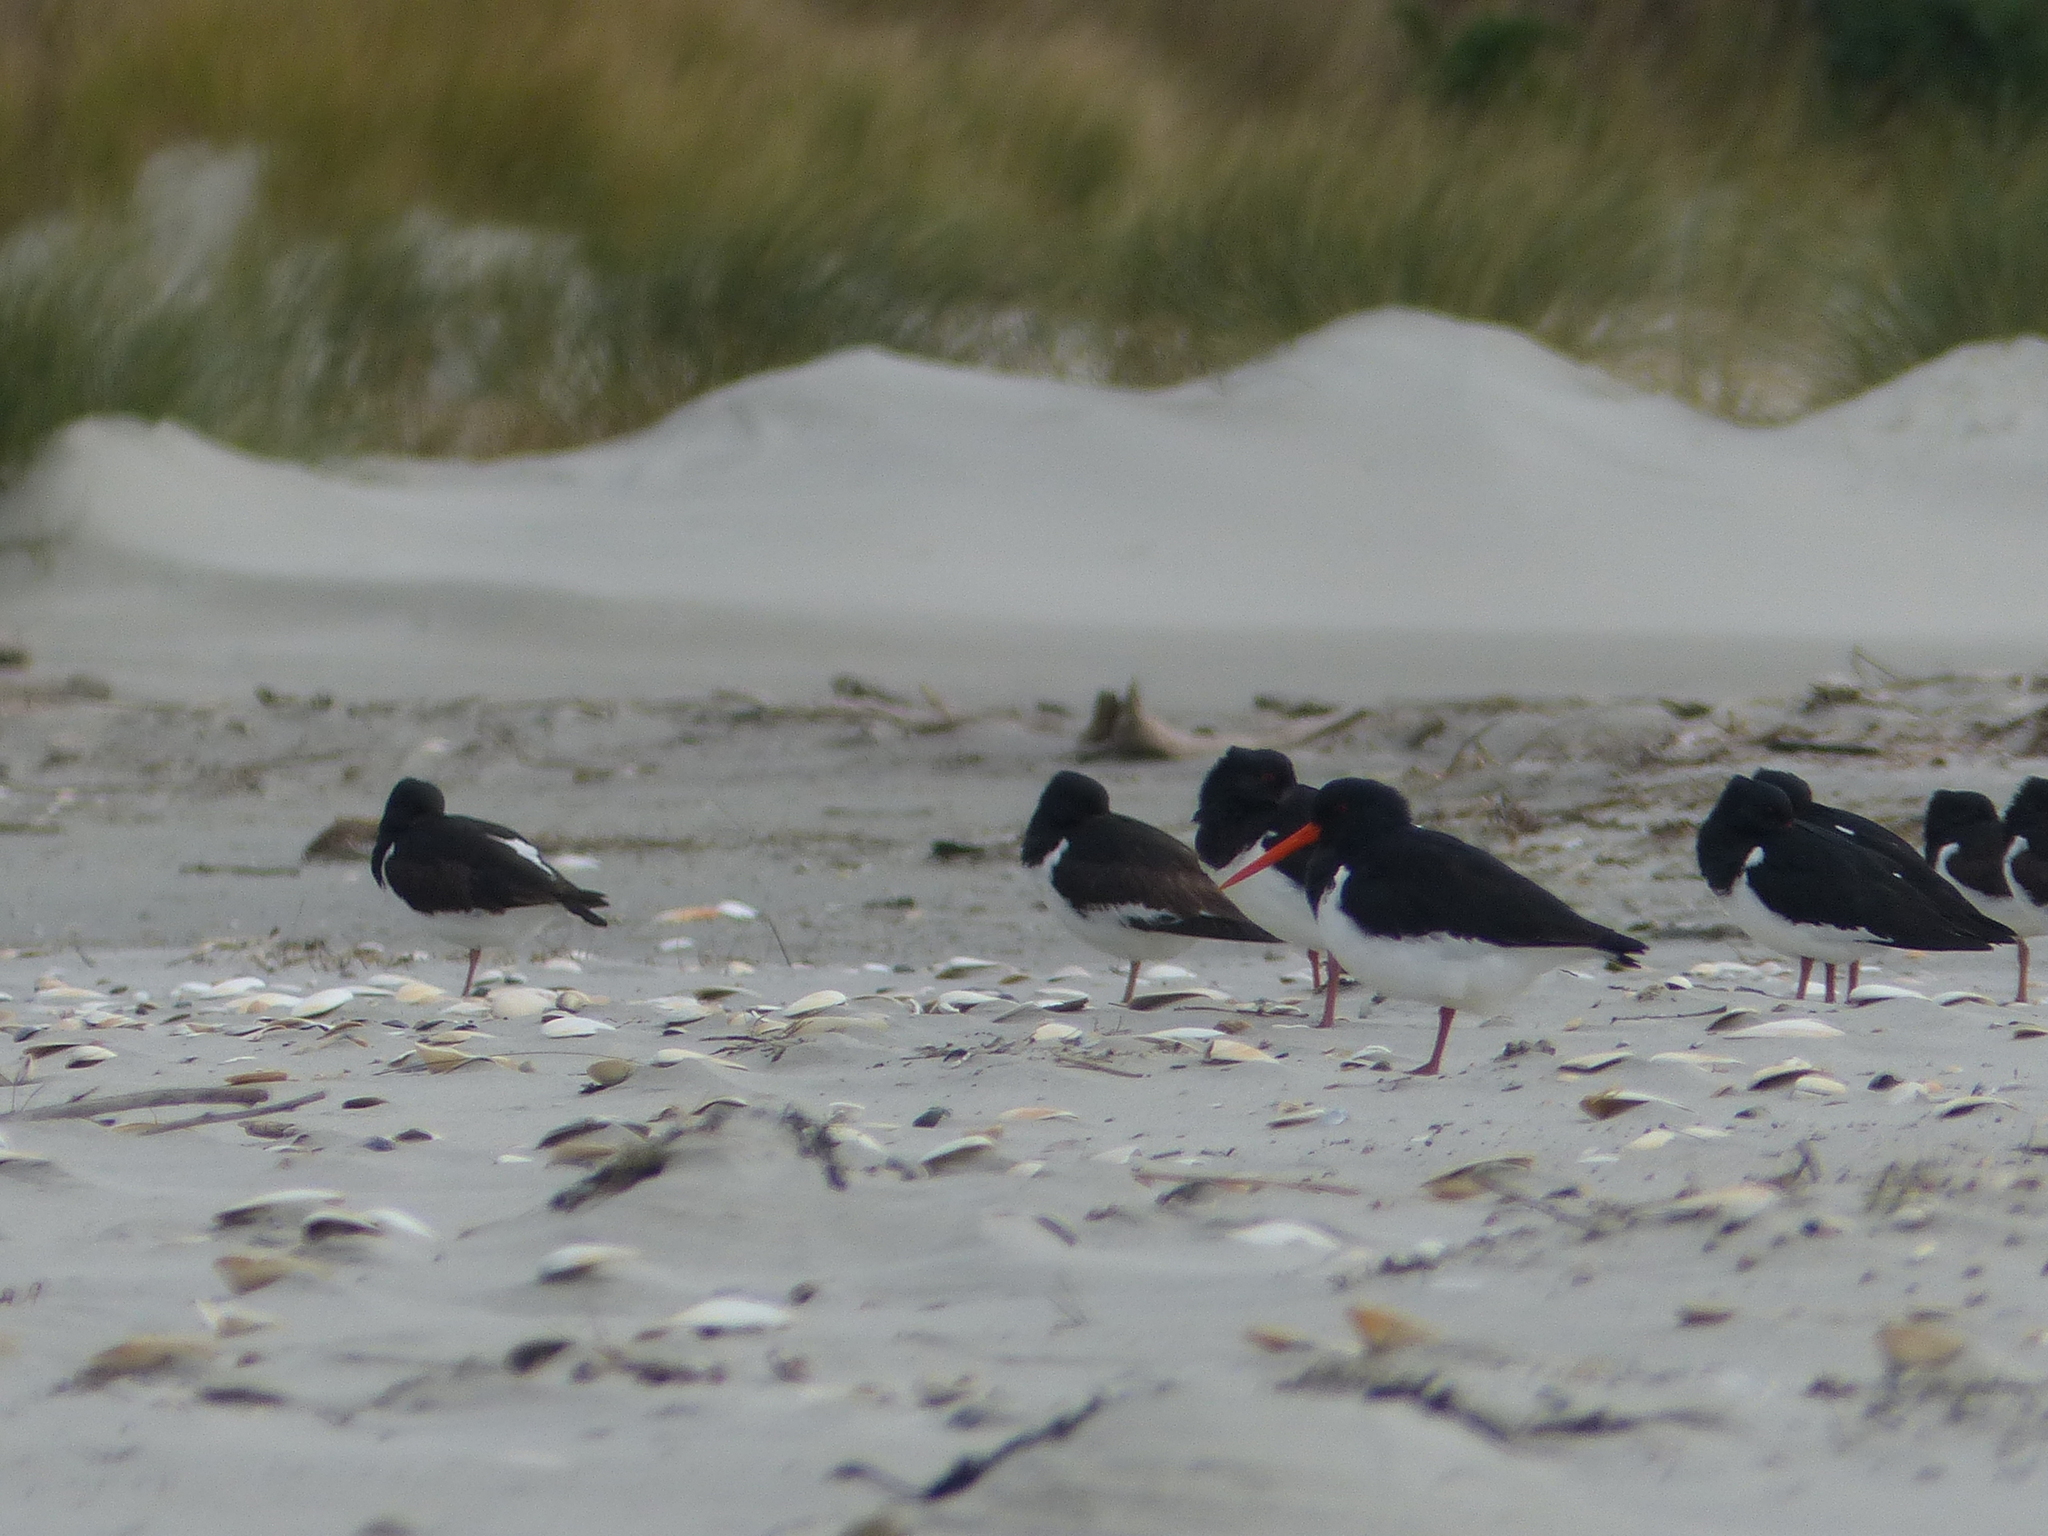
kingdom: Animalia
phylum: Chordata
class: Aves
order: Charadriiformes
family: Haematopodidae
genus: Haematopus
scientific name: Haematopus finschi
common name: South island oystercatcher
